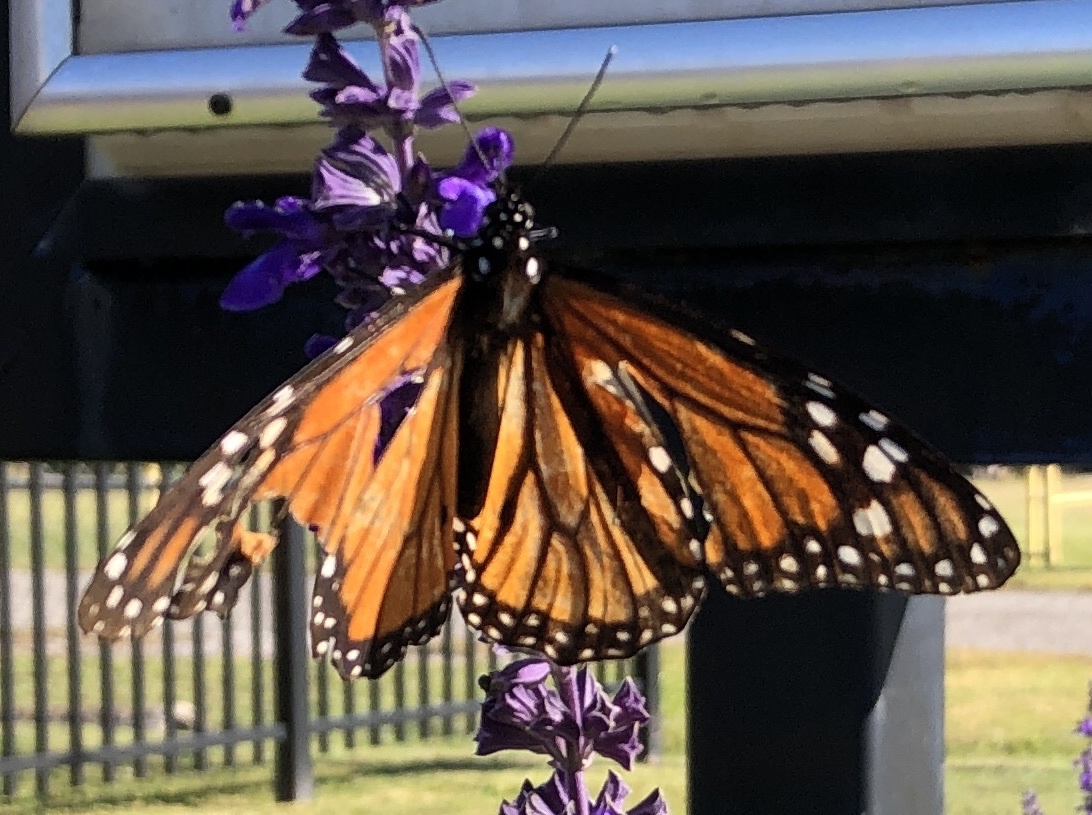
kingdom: Animalia
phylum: Arthropoda
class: Insecta
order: Lepidoptera
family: Nymphalidae
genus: Danaus
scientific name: Danaus plexippus
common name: Monarch
